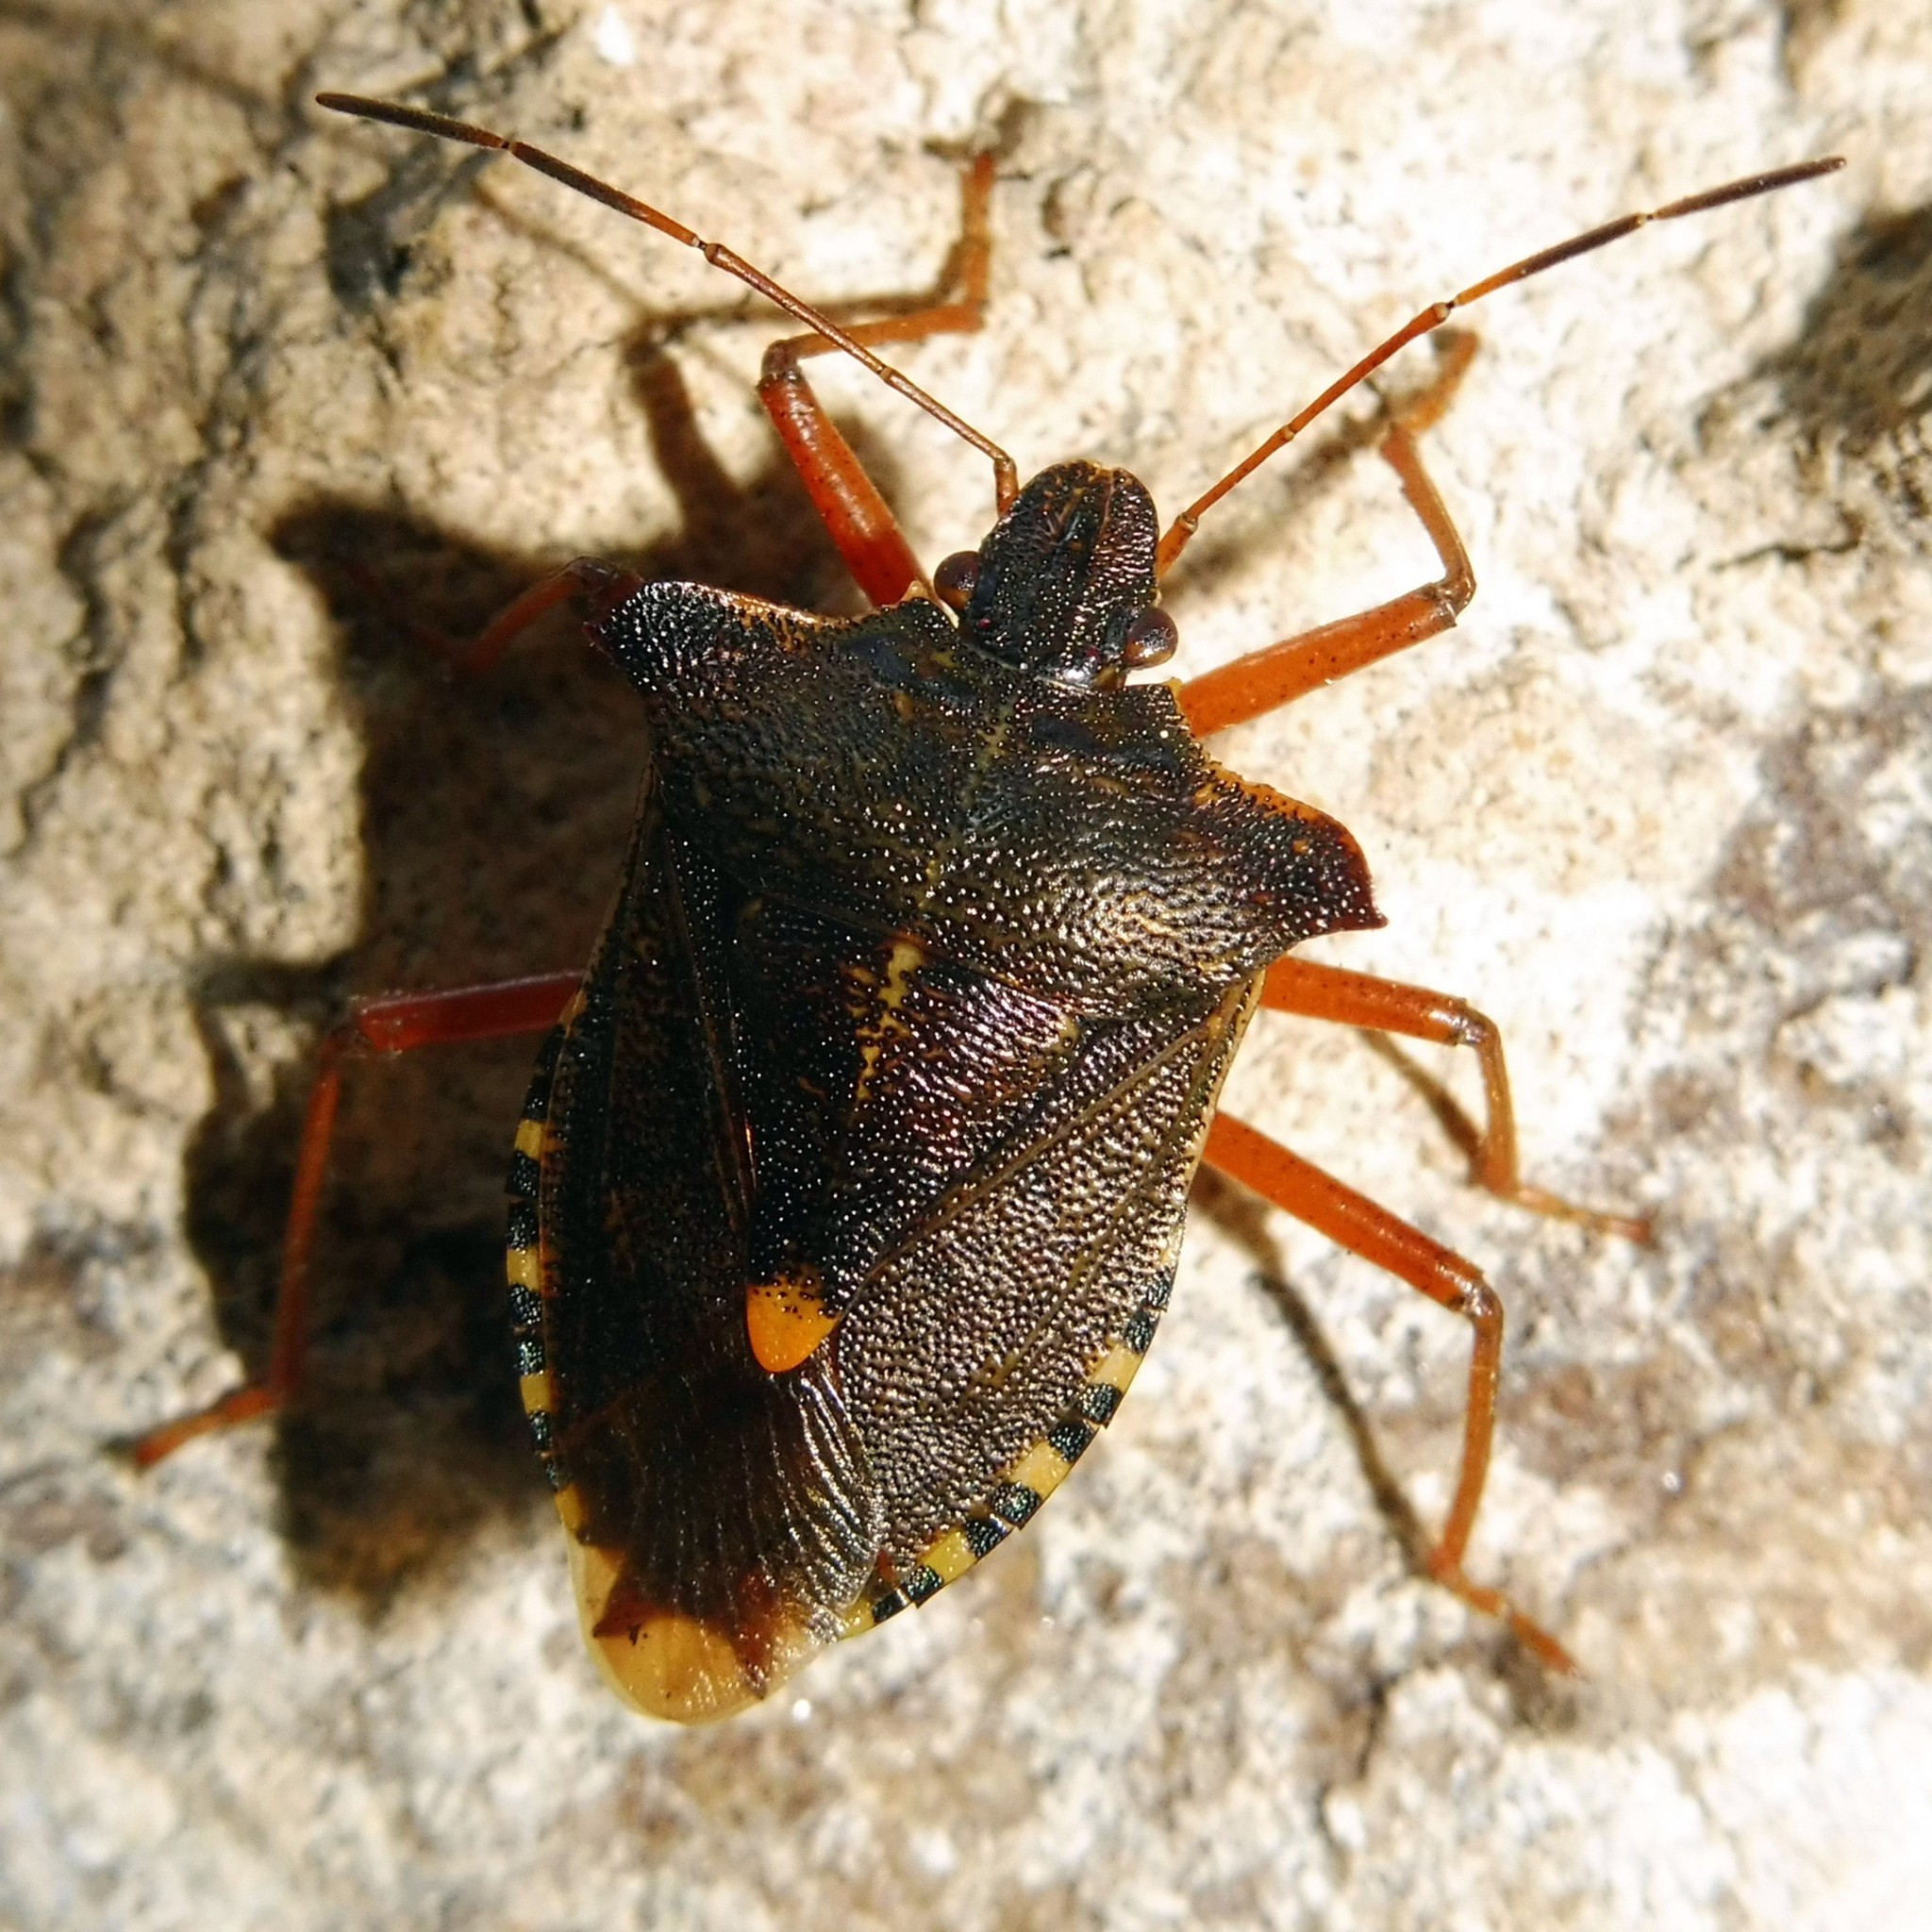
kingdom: Animalia
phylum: Arthropoda
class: Insecta
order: Hemiptera
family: Pentatomidae
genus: Pentatoma
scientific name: Pentatoma rufipes
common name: Forest bug
